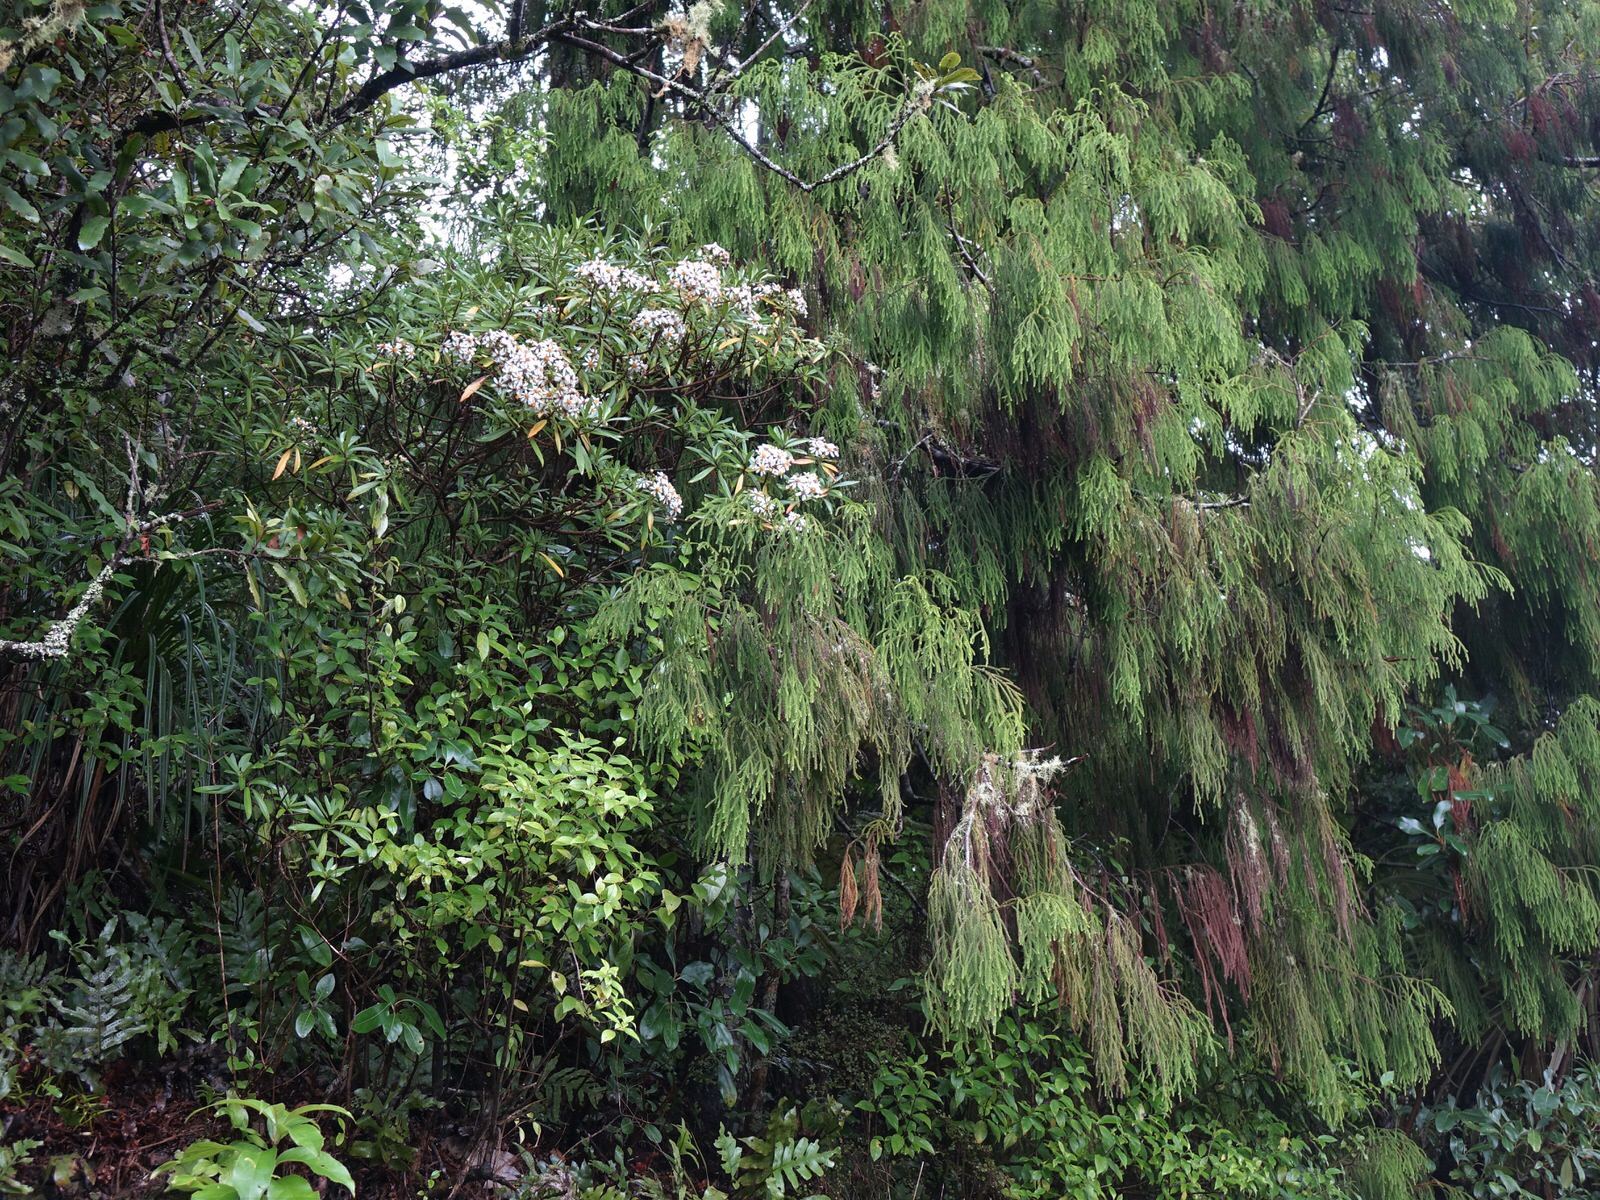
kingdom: Plantae
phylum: Tracheophyta
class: Magnoliopsida
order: Asterales
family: Asteraceae
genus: Brachyglottis
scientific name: Brachyglottis kirkii
